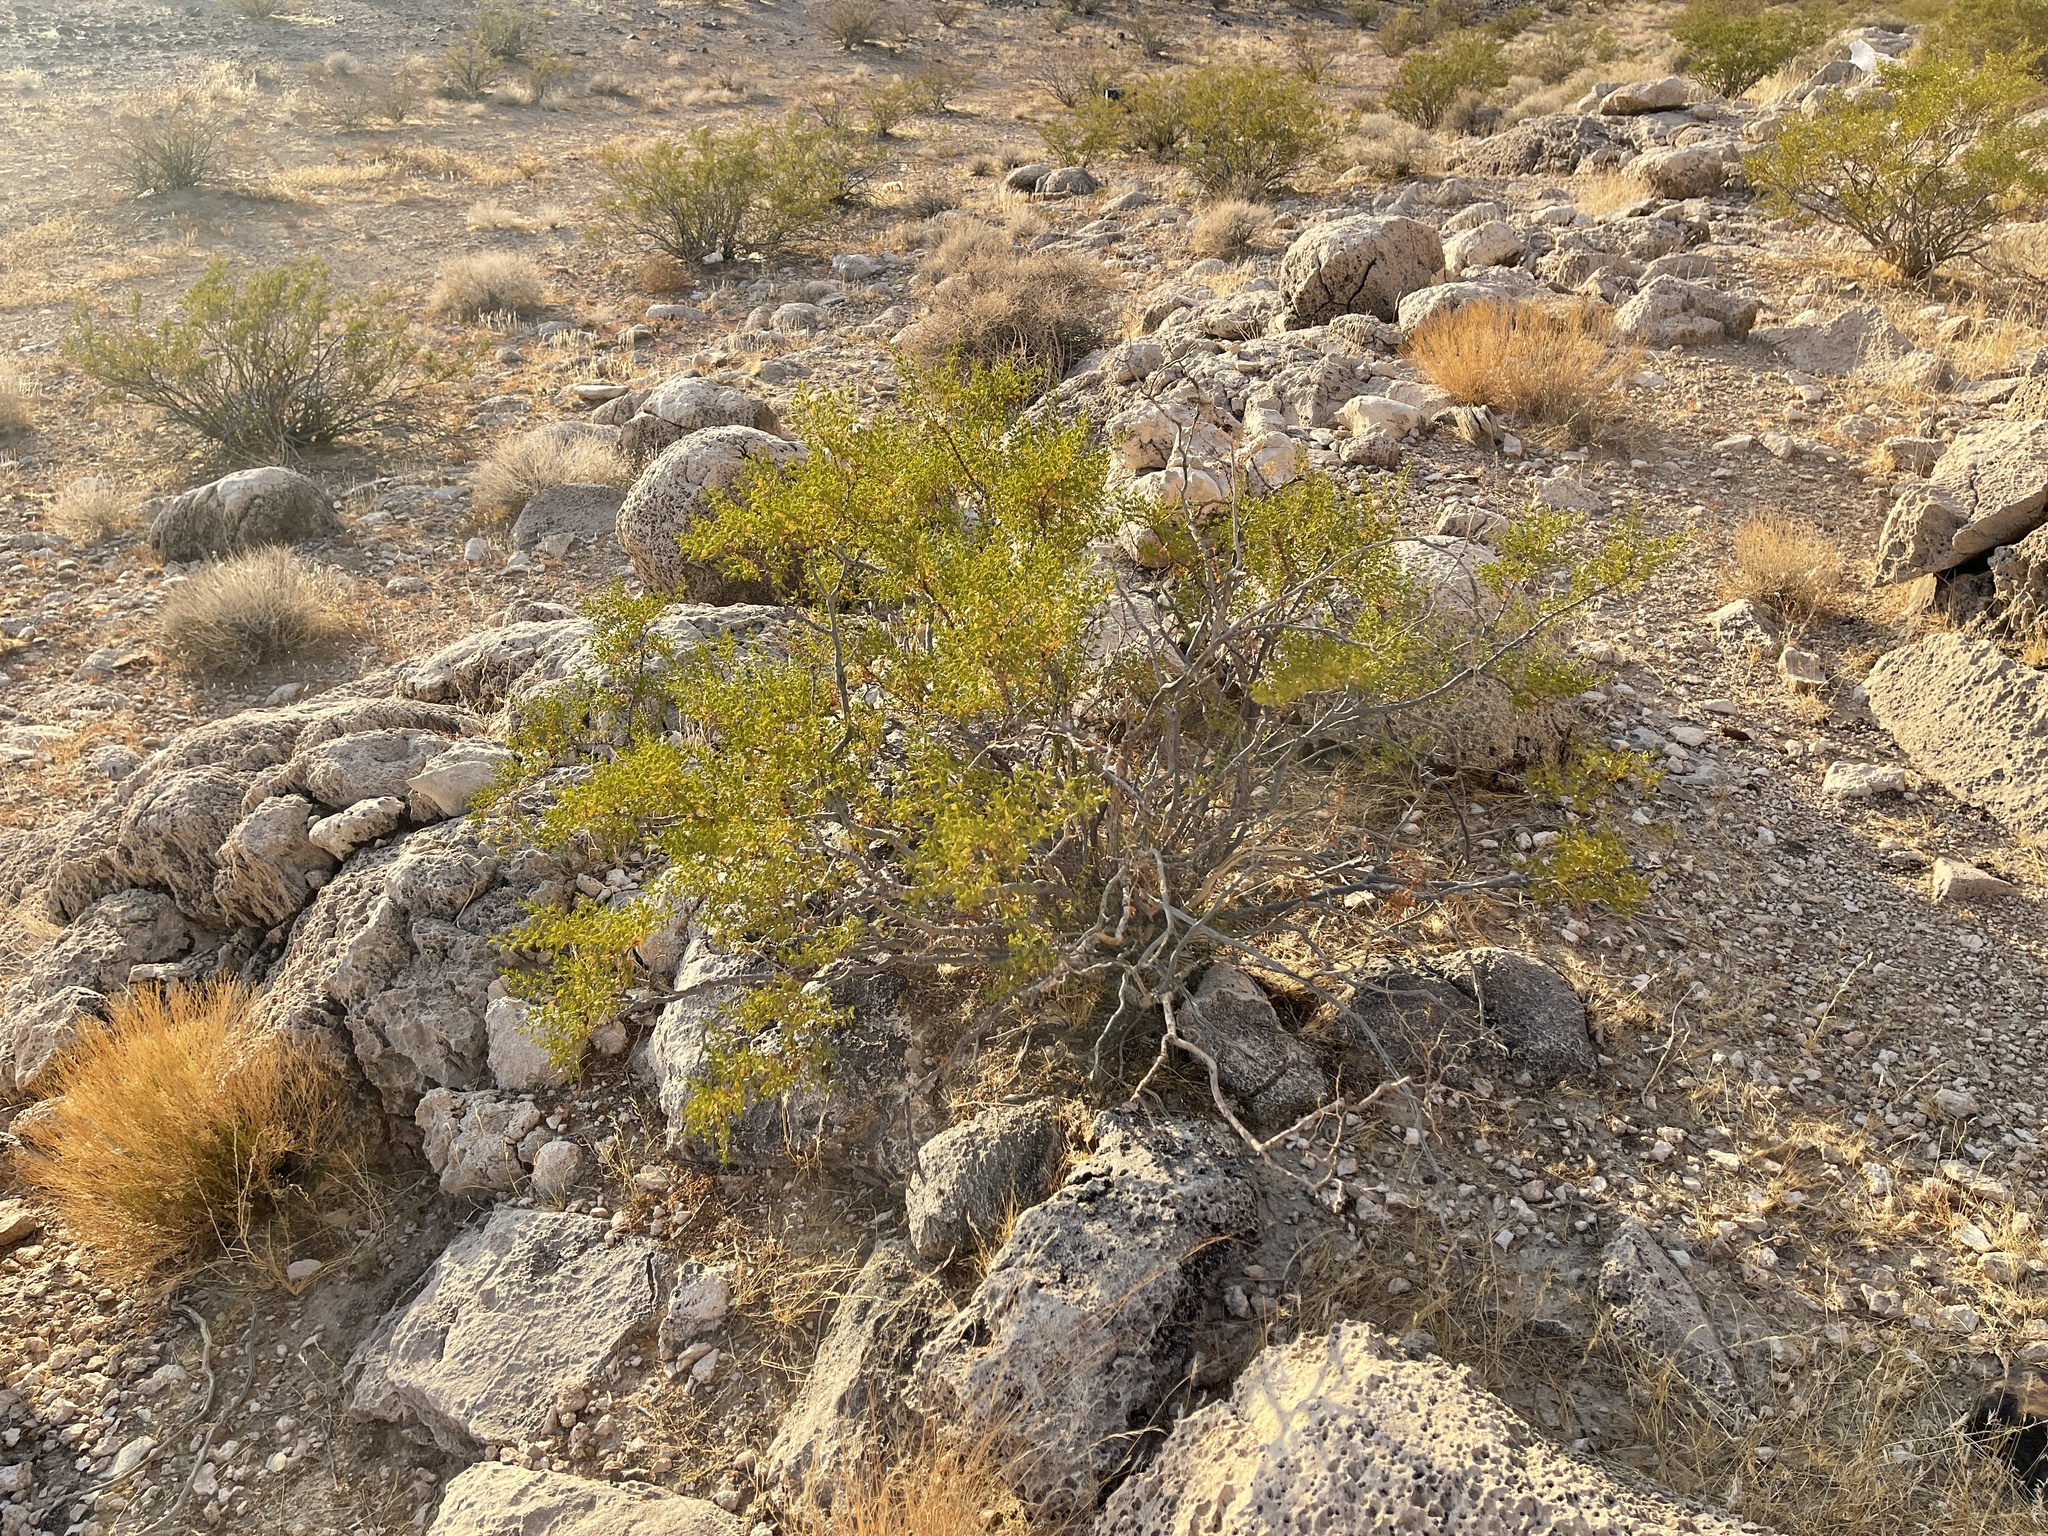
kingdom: Plantae
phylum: Tracheophyta
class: Magnoliopsida
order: Zygophyllales
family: Zygophyllaceae
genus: Larrea
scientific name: Larrea tridentata
